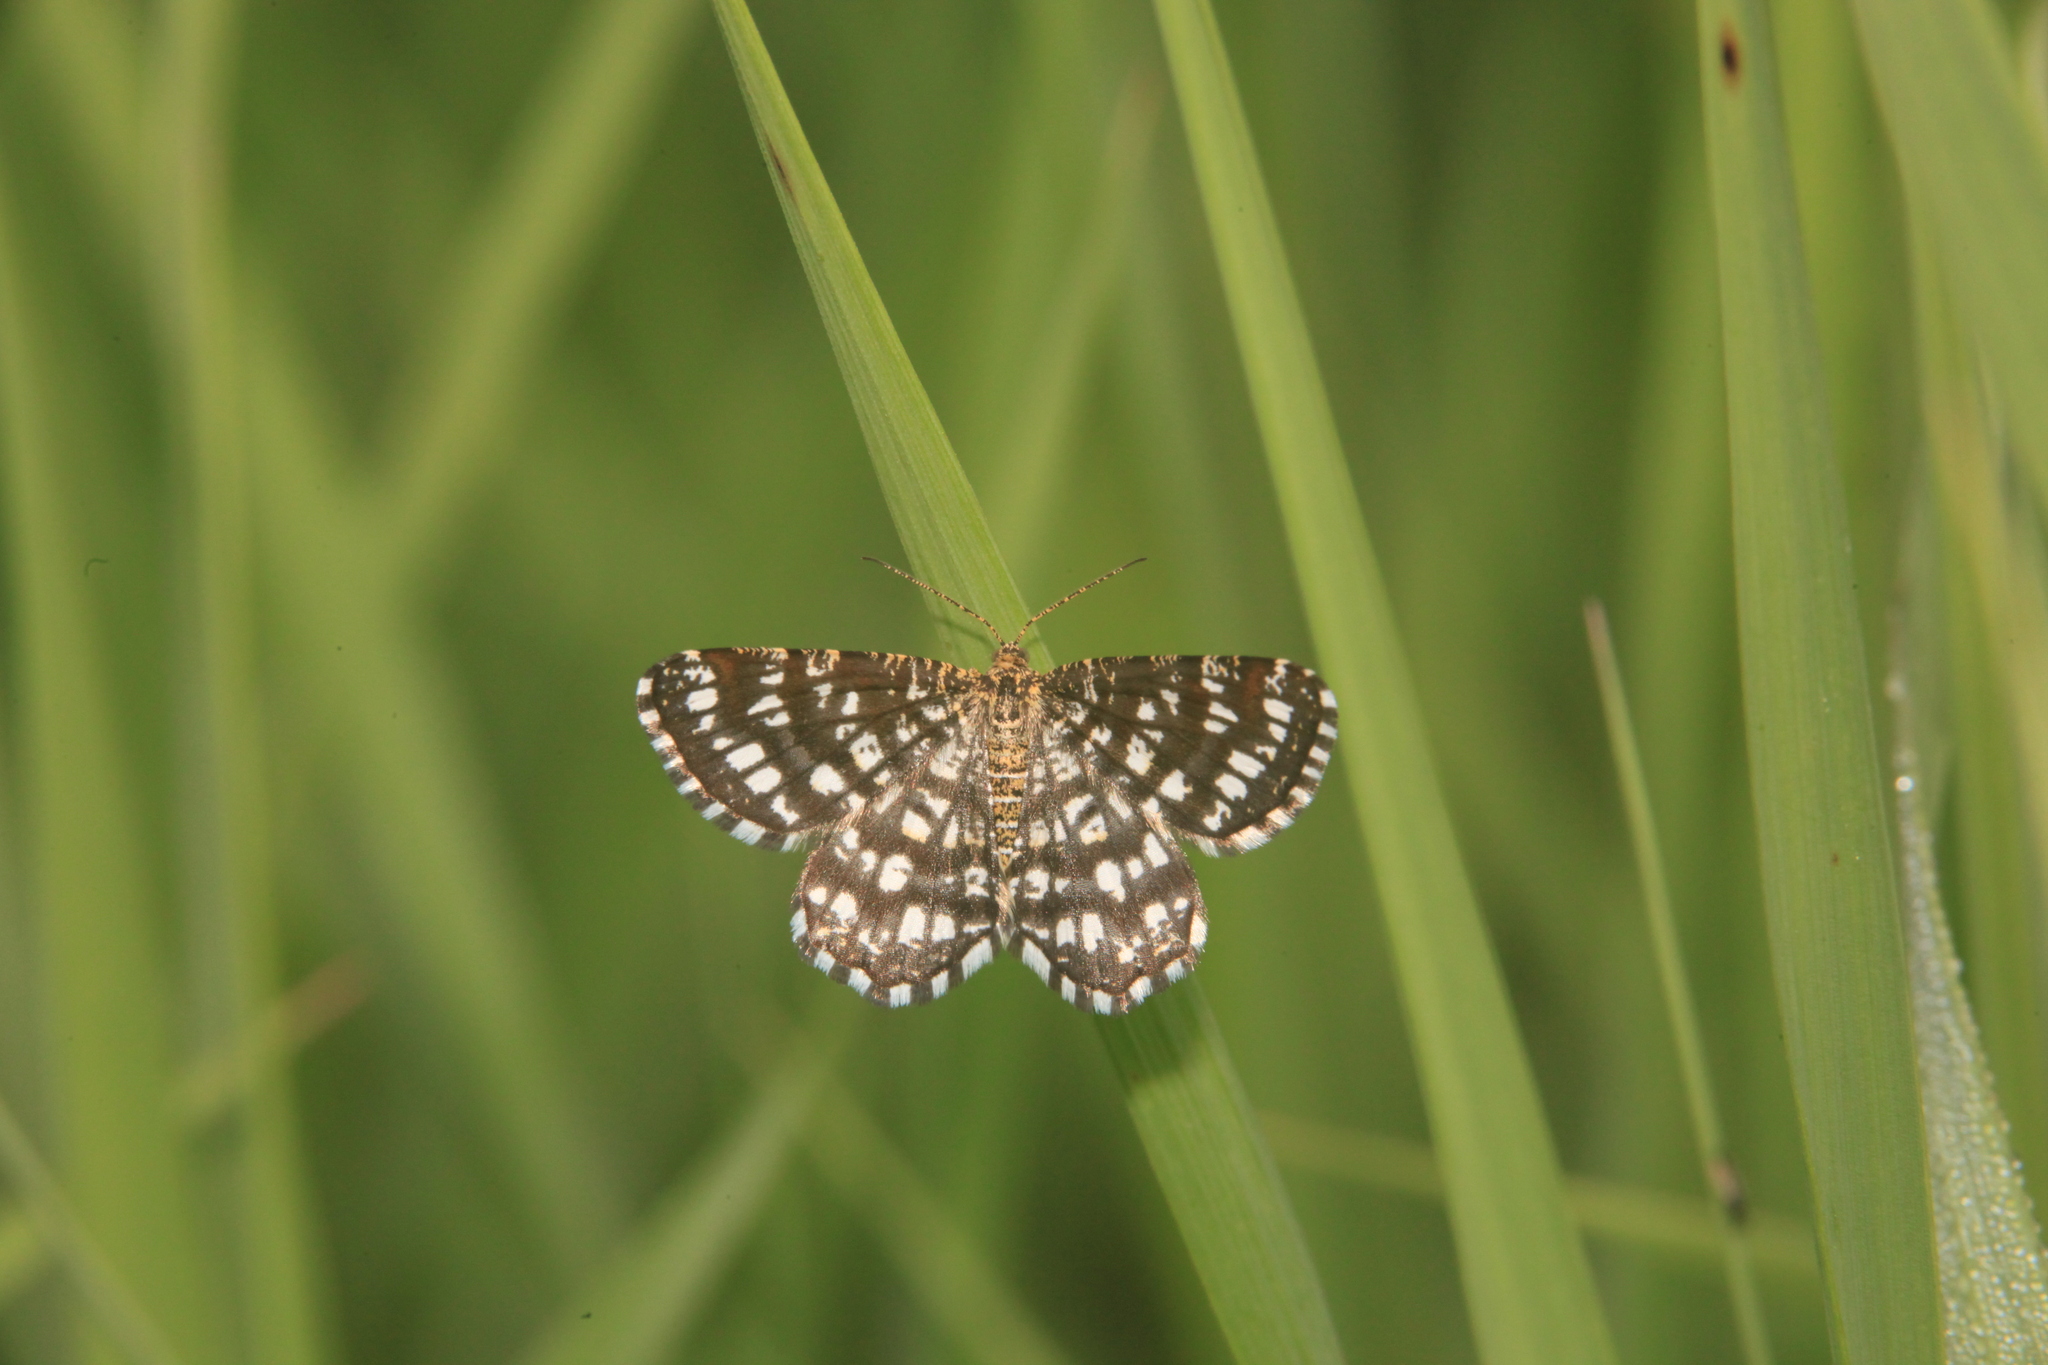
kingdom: Animalia
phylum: Arthropoda
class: Insecta
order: Lepidoptera
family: Geometridae
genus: Chiasmia
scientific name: Chiasmia clathrata
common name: Latticed heath
